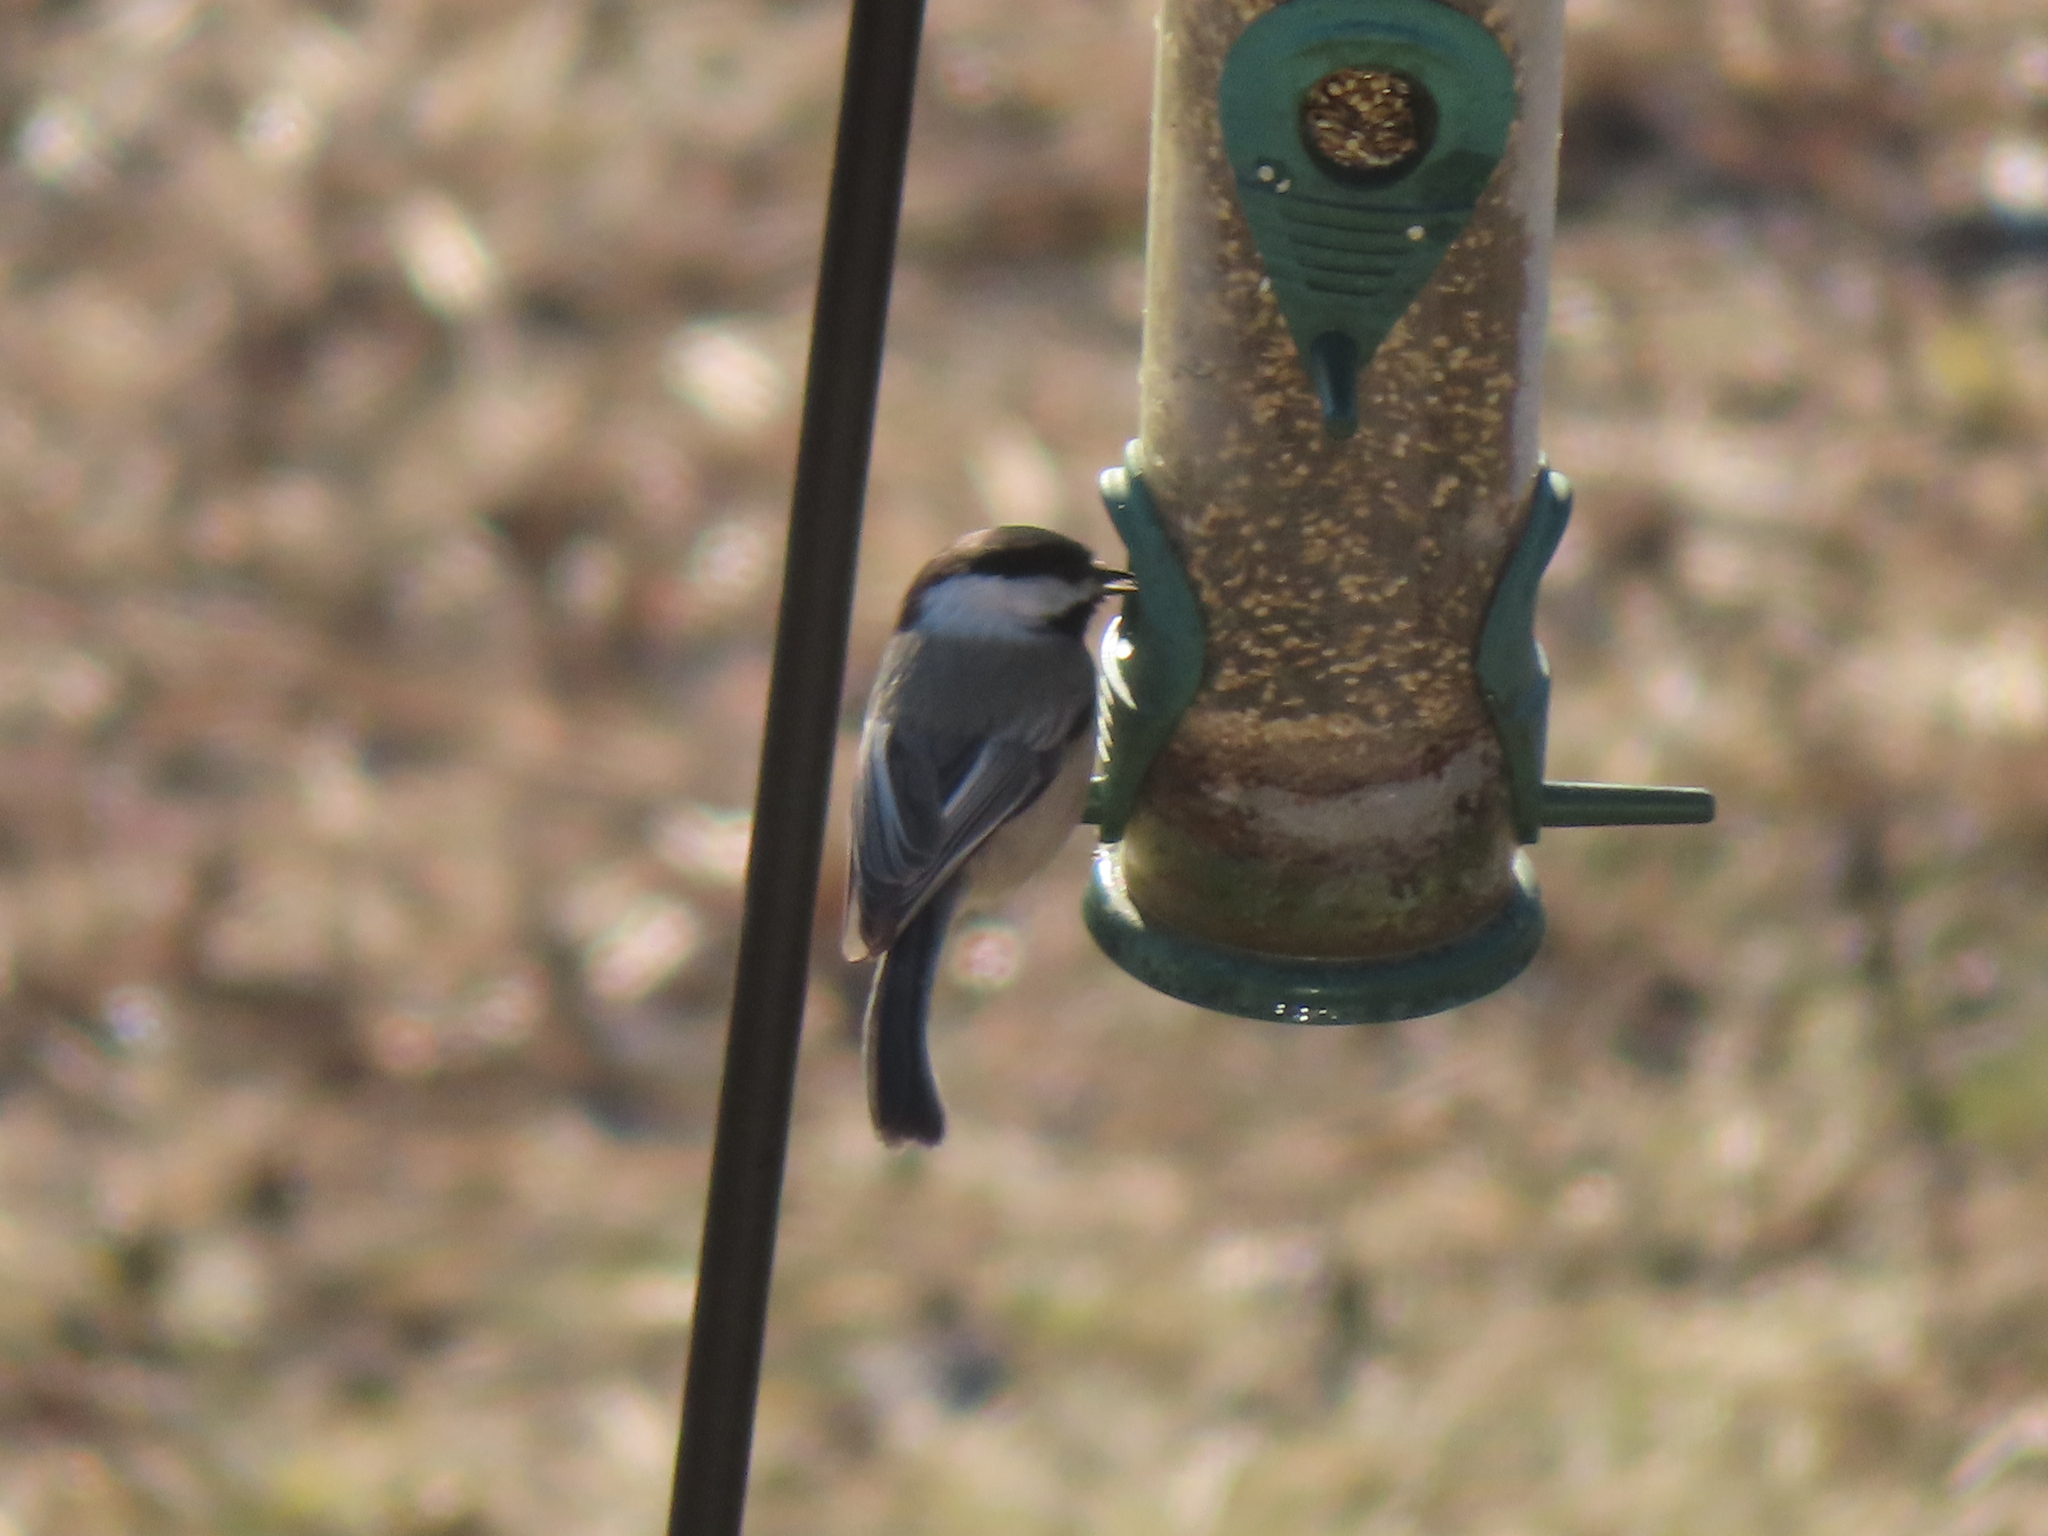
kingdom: Animalia
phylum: Chordata
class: Aves
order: Passeriformes
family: Paridae
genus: Poecile
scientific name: Poecile atricapillus
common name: Black-capped chickadee
